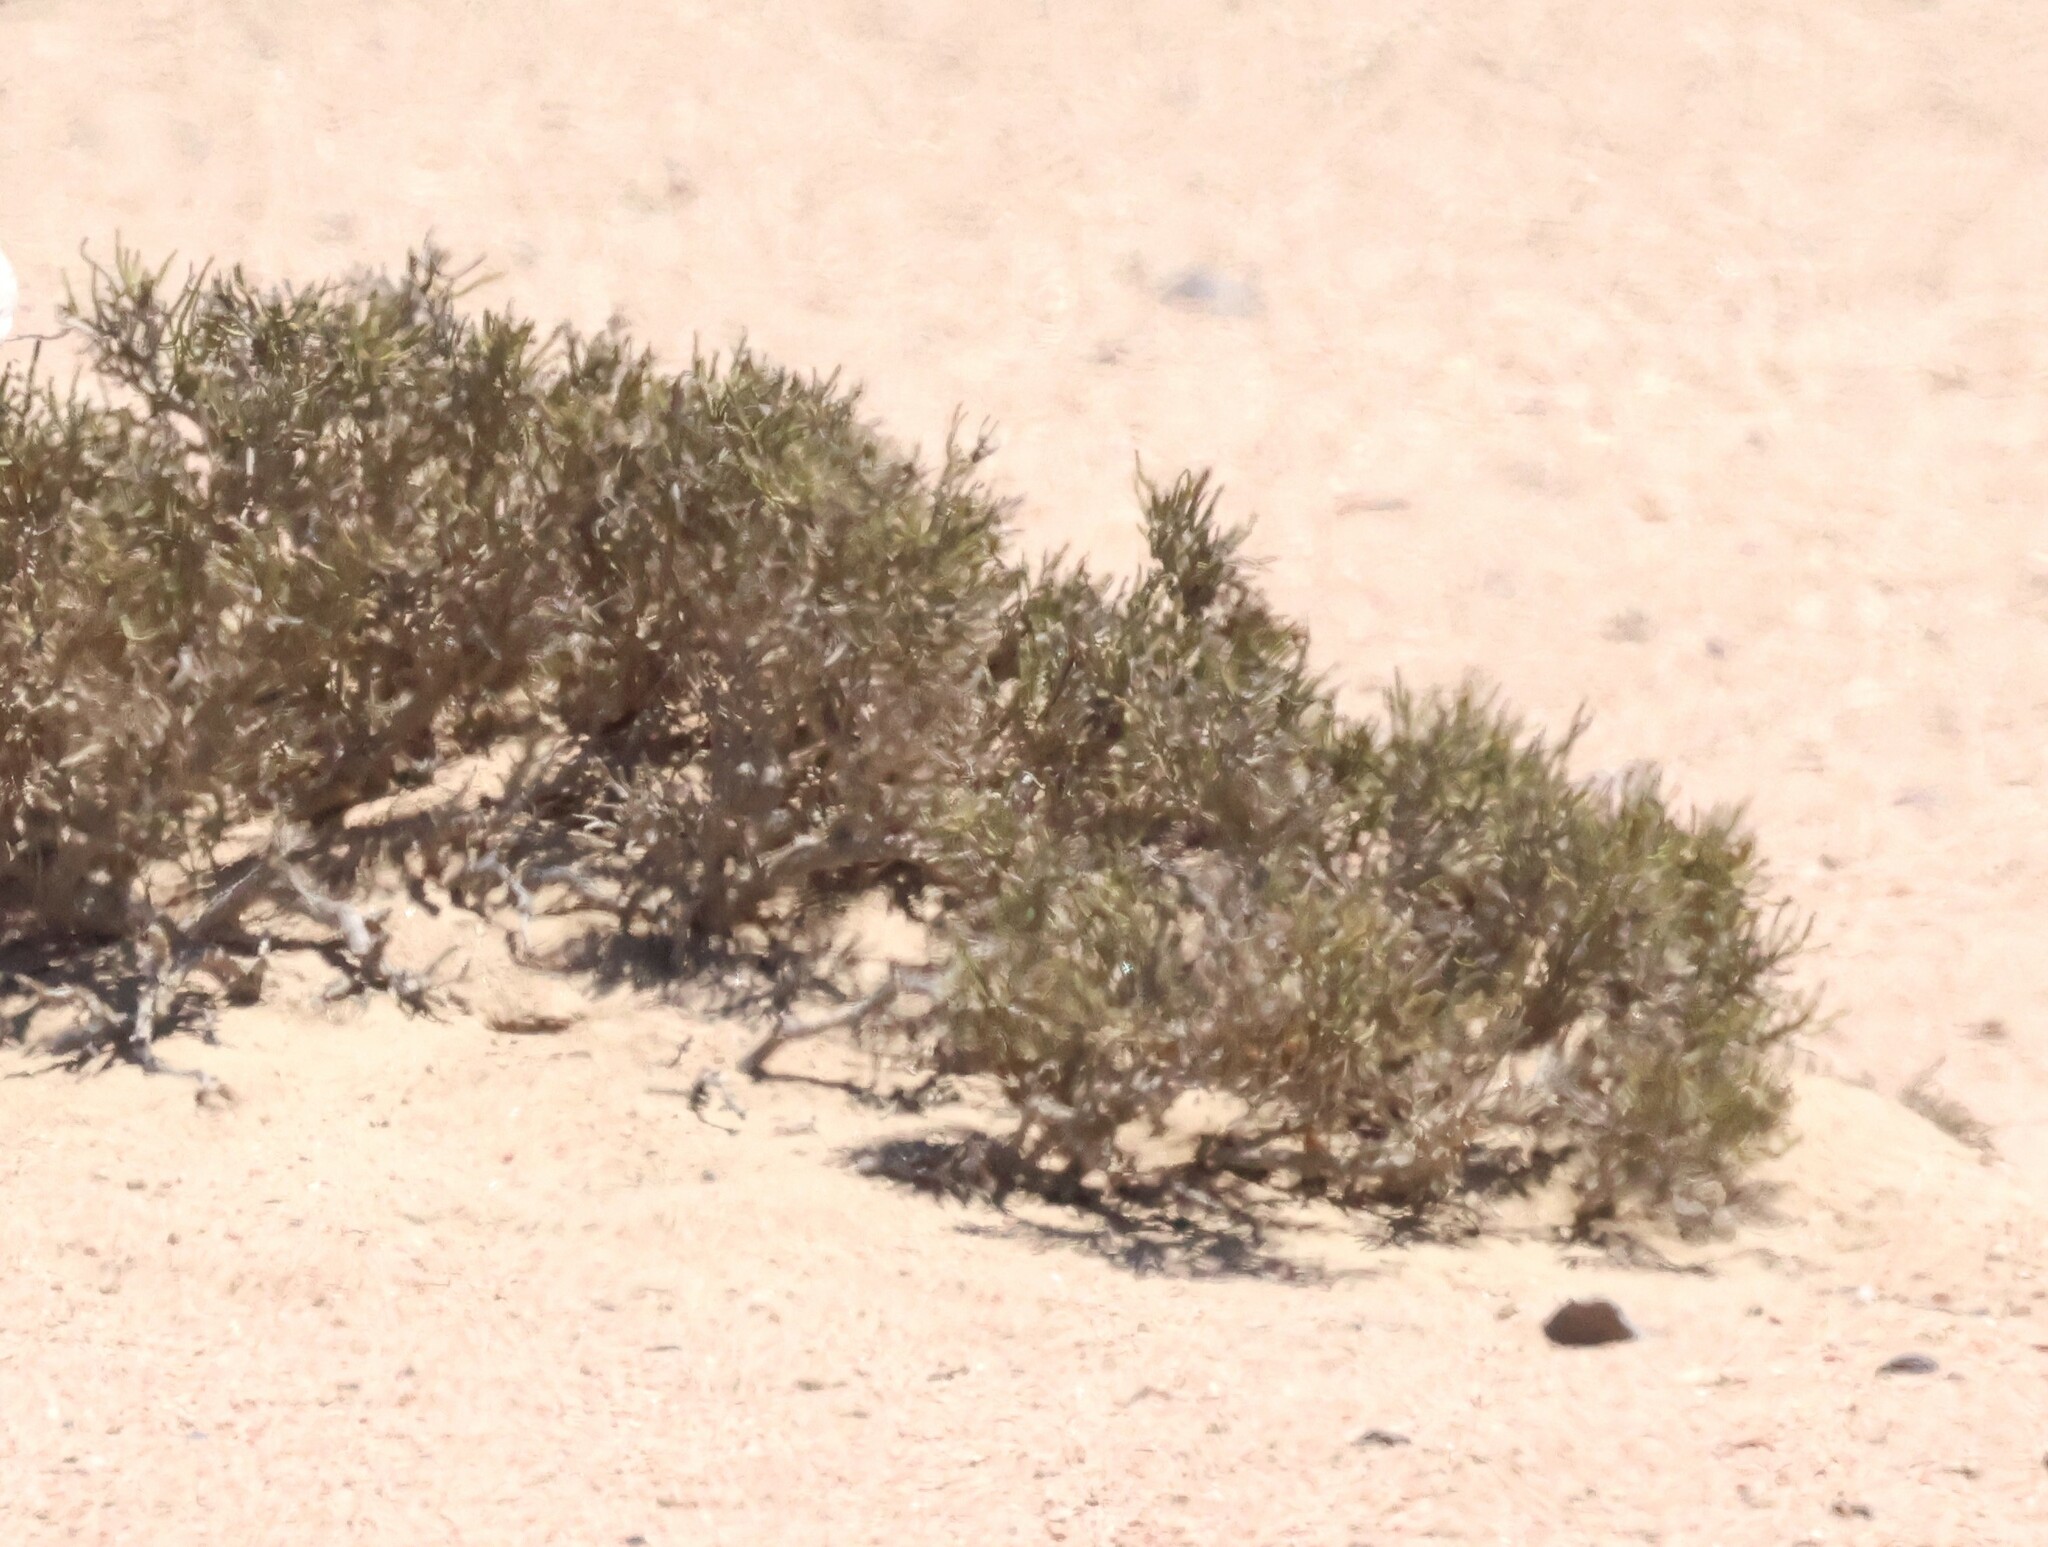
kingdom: Plantae
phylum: Tracheophyta
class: Magnoliopsida
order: Caryophyllales
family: Amaranthaceae
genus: Arthraerva
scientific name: Arthraerva leubnitziae
